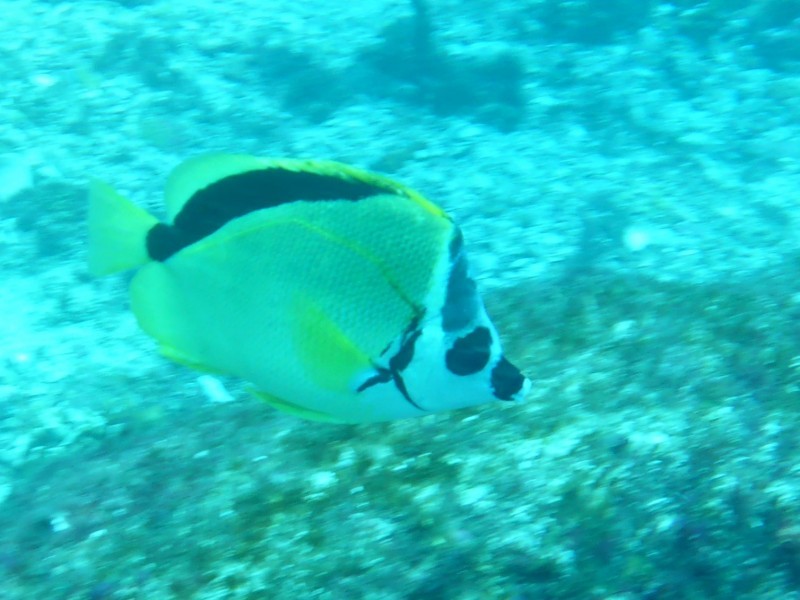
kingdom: Animalia
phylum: Chordata
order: Perciformes
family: Chaetodontidae
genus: Johnrandallia
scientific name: Johnrandallia nigrirostris
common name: Barberfish
